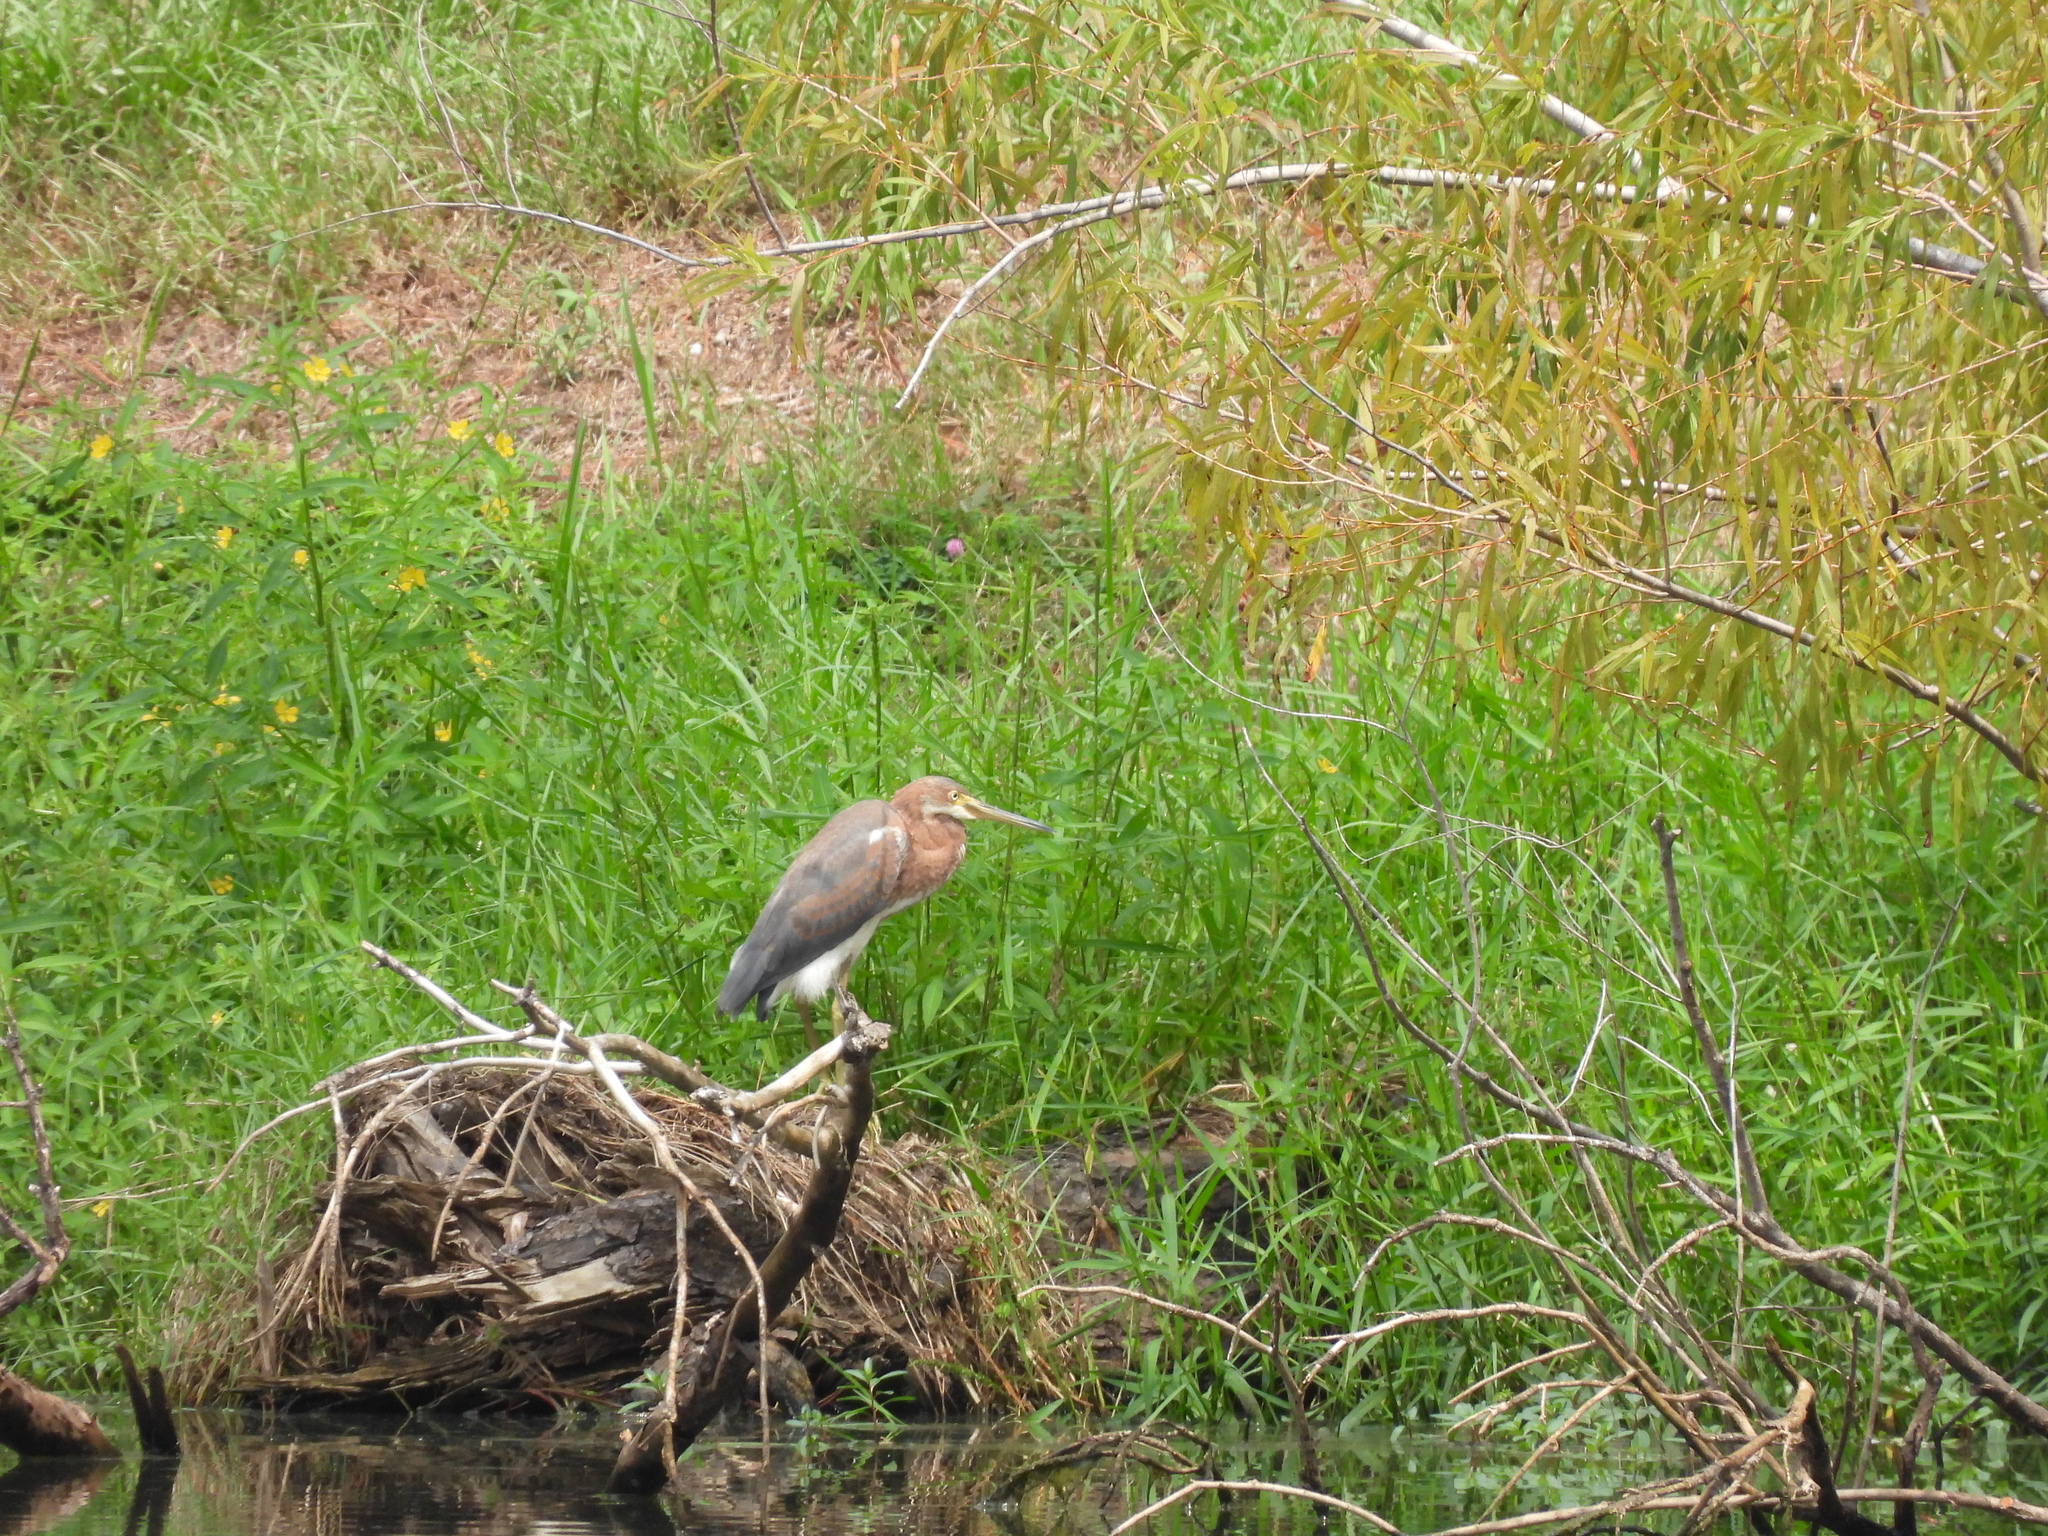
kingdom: Animalia
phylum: Chordata
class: Aves
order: Pelecaniformes
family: Ardeidae
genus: Egretta
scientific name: Egretta tricolor
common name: Tricolored heron
